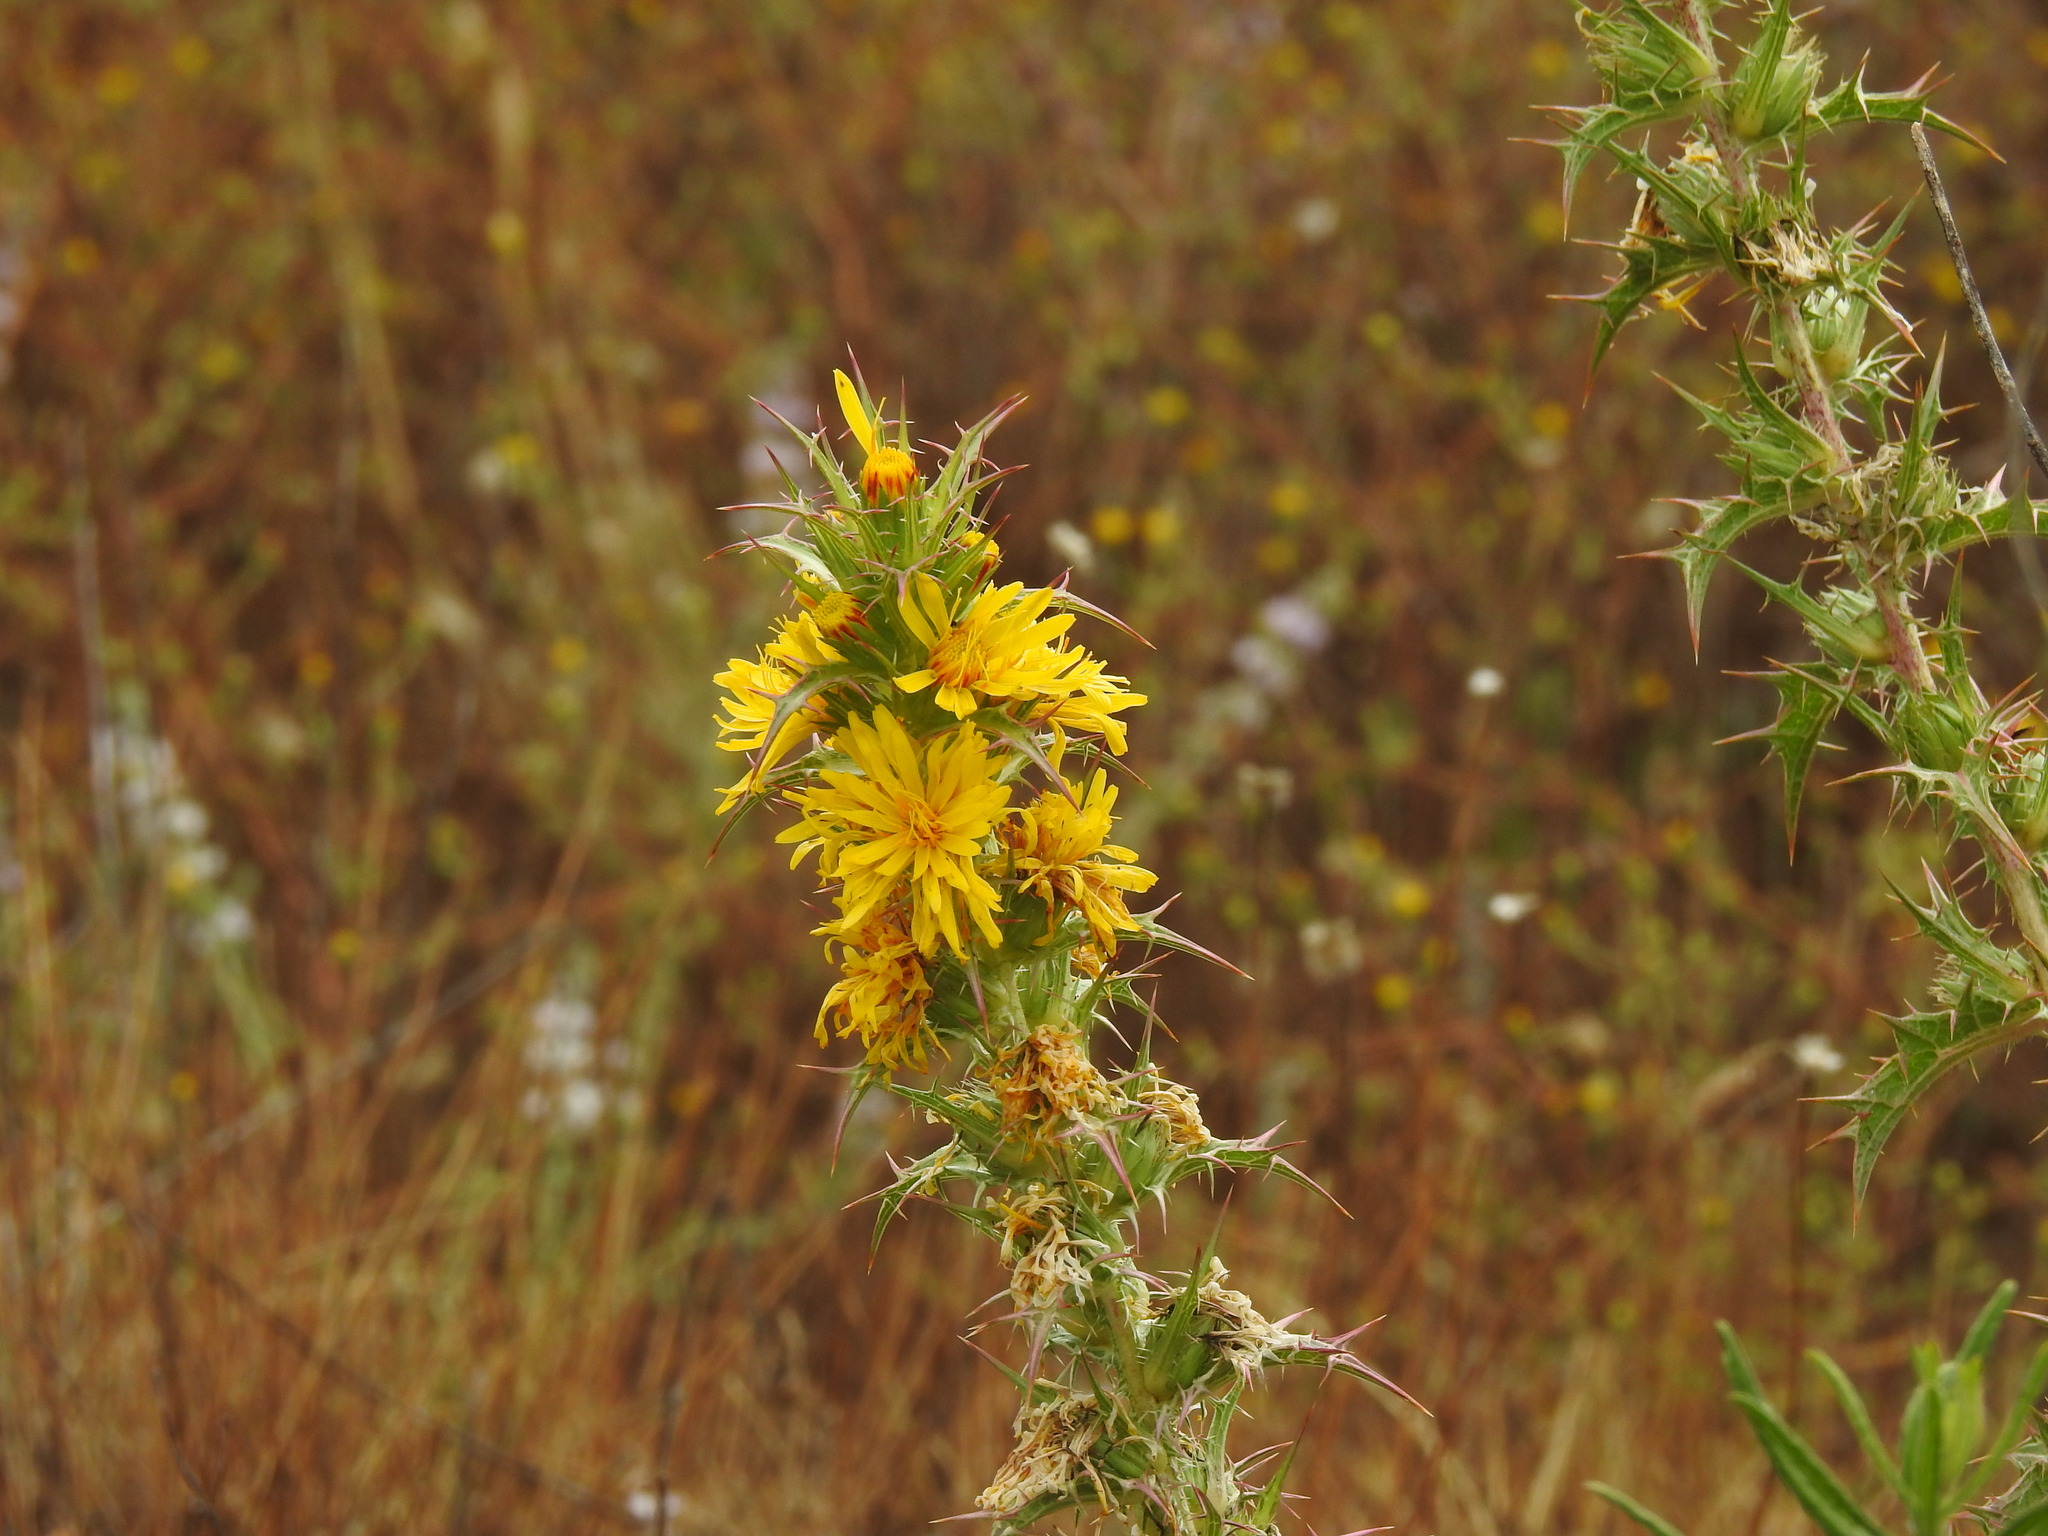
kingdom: Plantae
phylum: Tracheophyta
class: Magnoliopsida
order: Asterales
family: Asteraceae
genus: Scolymus
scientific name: Scolymus hispanicus
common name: Golden thistle
